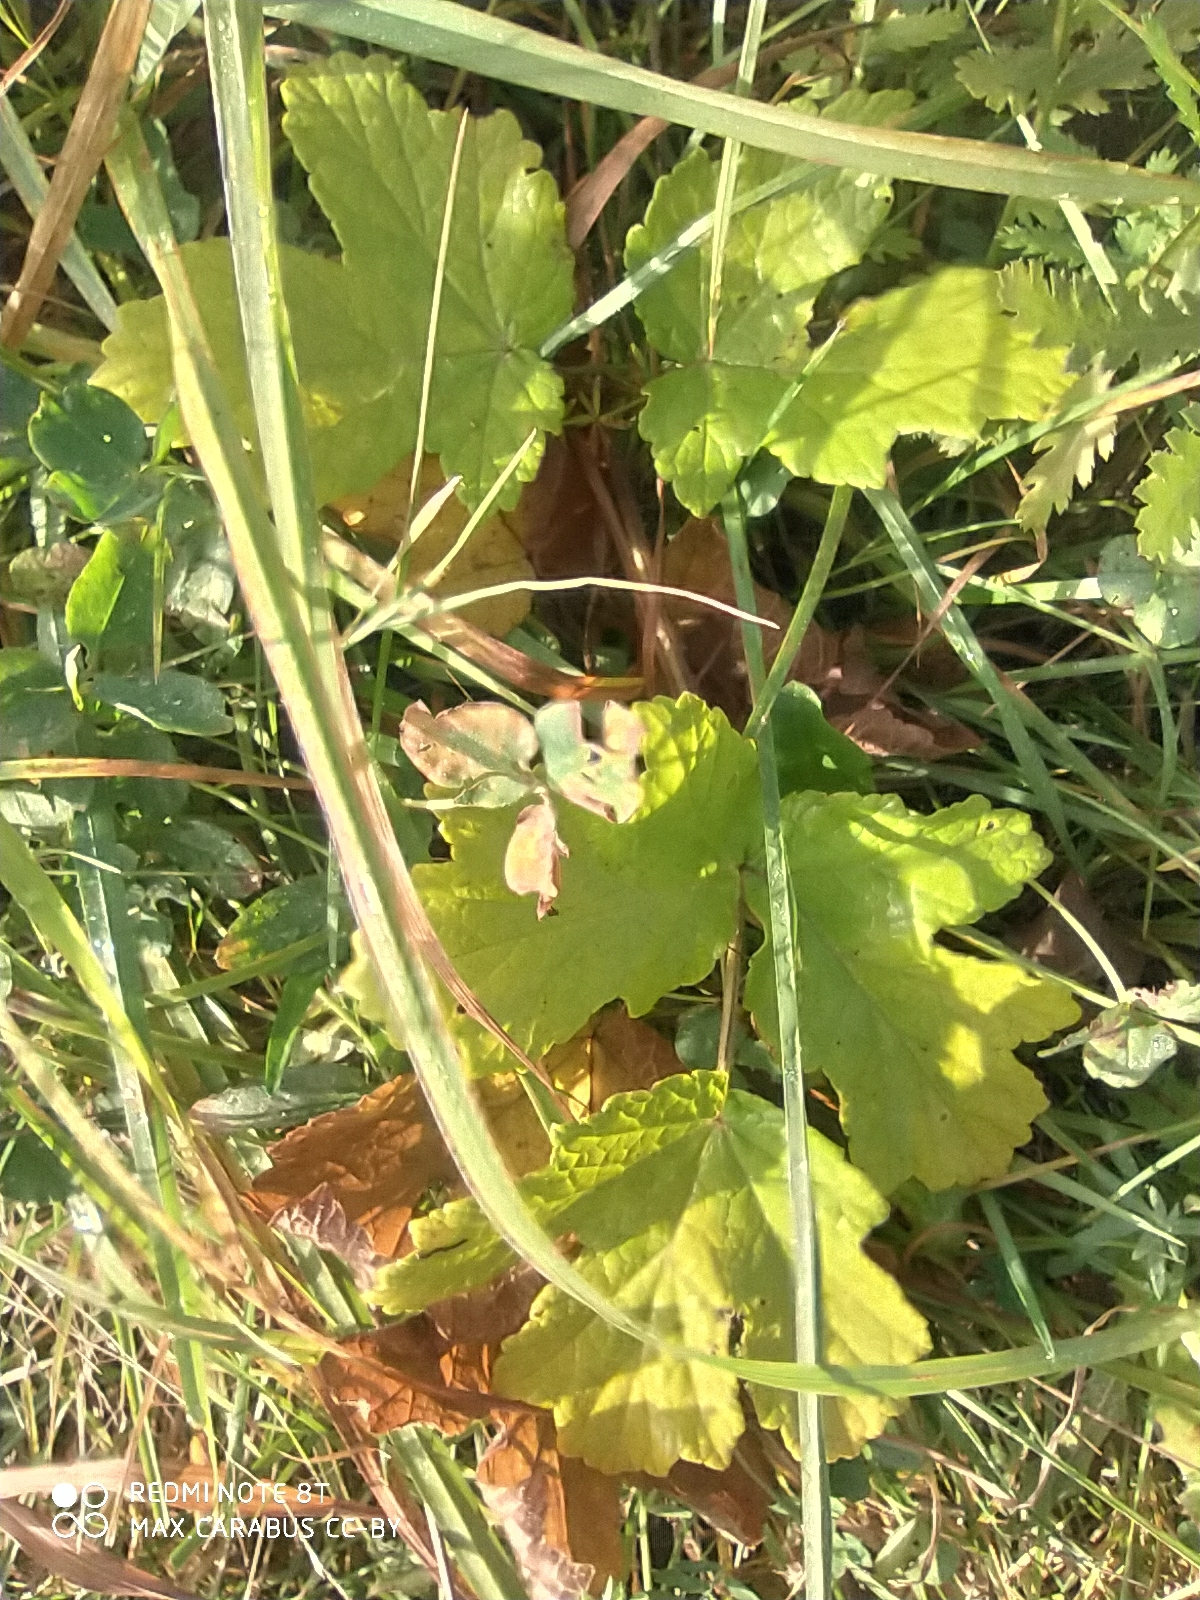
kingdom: Plantae
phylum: Tracheophyta
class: Magnoliopsida
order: Apiales
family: Apiaceae
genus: Heracleum
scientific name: Heracleum sphondylium
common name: Hogweed
